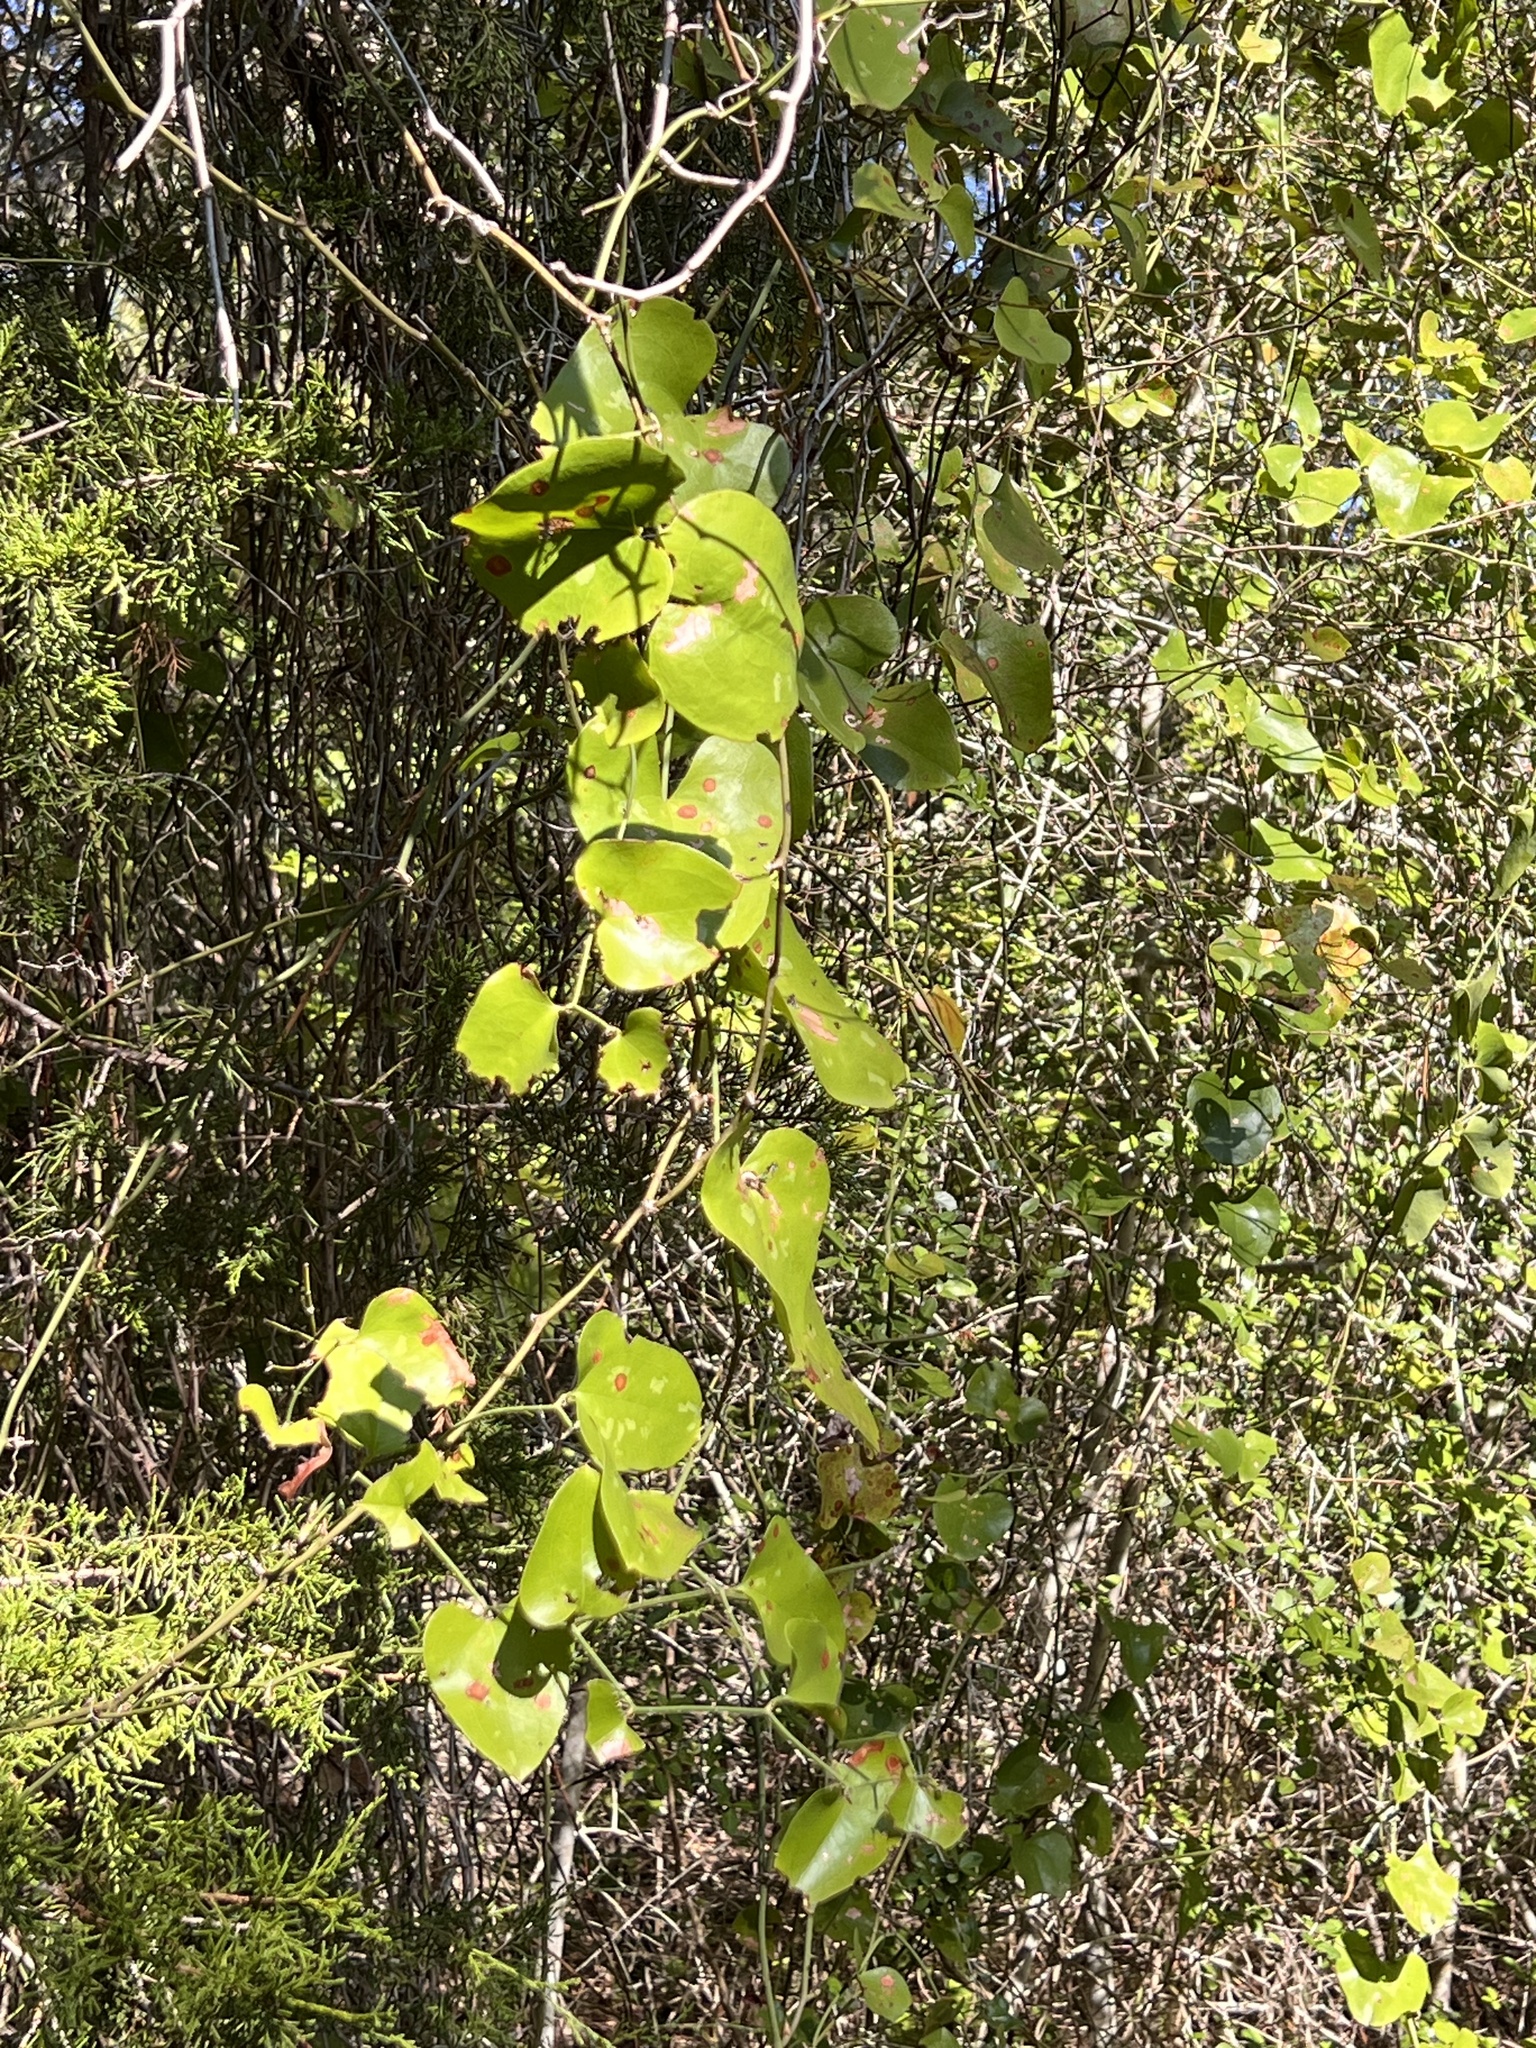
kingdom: Plantae
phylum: Tracheophyta
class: Liliopsida
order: Liliales
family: Smilacaceae
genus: Smilax
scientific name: Smilax bona-nox
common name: Catbrier
